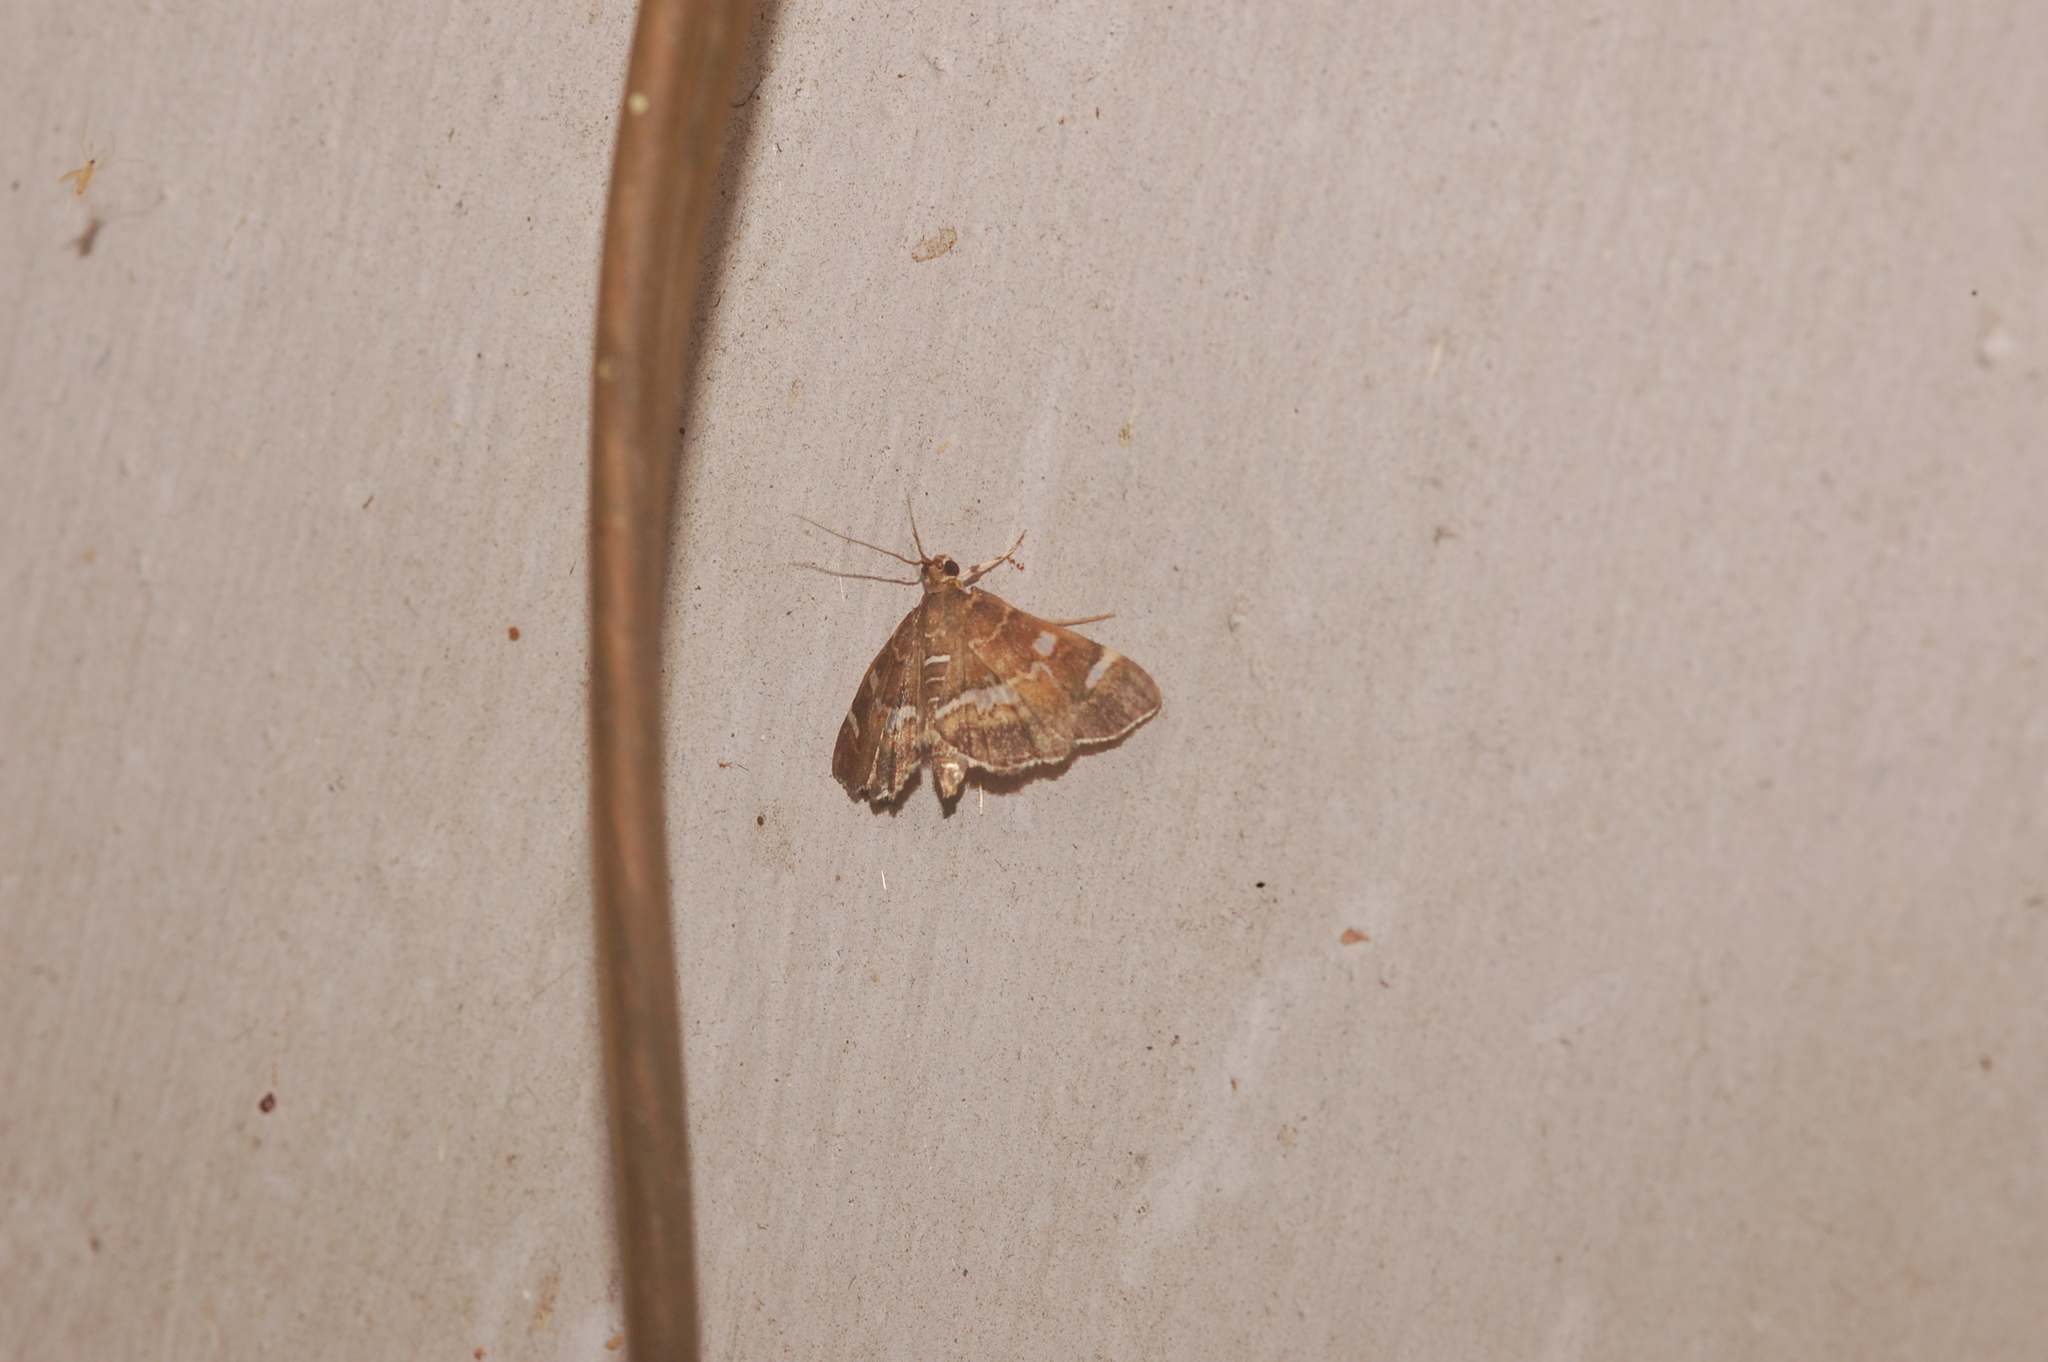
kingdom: Animalia
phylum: Arthropoda
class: Insecta
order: Lepidoptera
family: Crambidae
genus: Hymenia
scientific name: Hymenia perspectalis
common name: Spotted beet webworm
